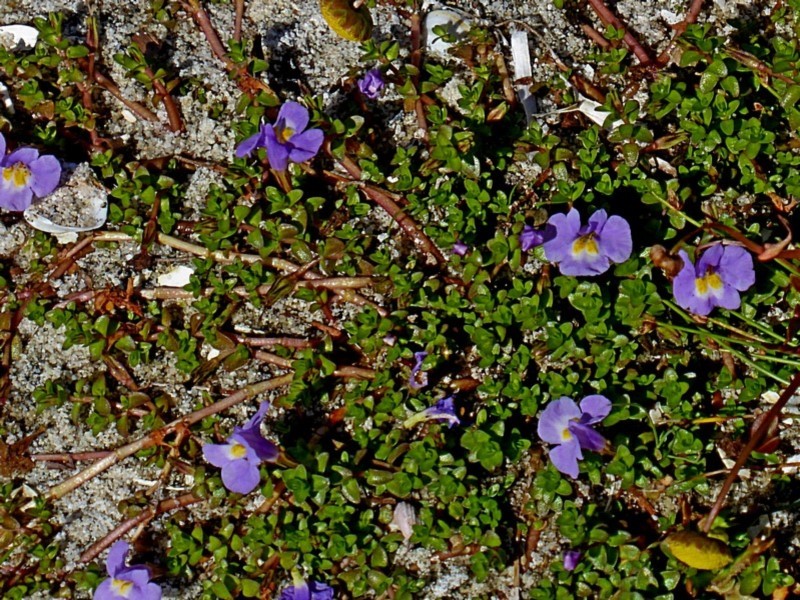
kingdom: Plantae
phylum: Tracheophyta
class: Magnoliopsida
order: Lamiales
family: Phrymaceae
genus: Thyridia
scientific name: Thyridia repens
